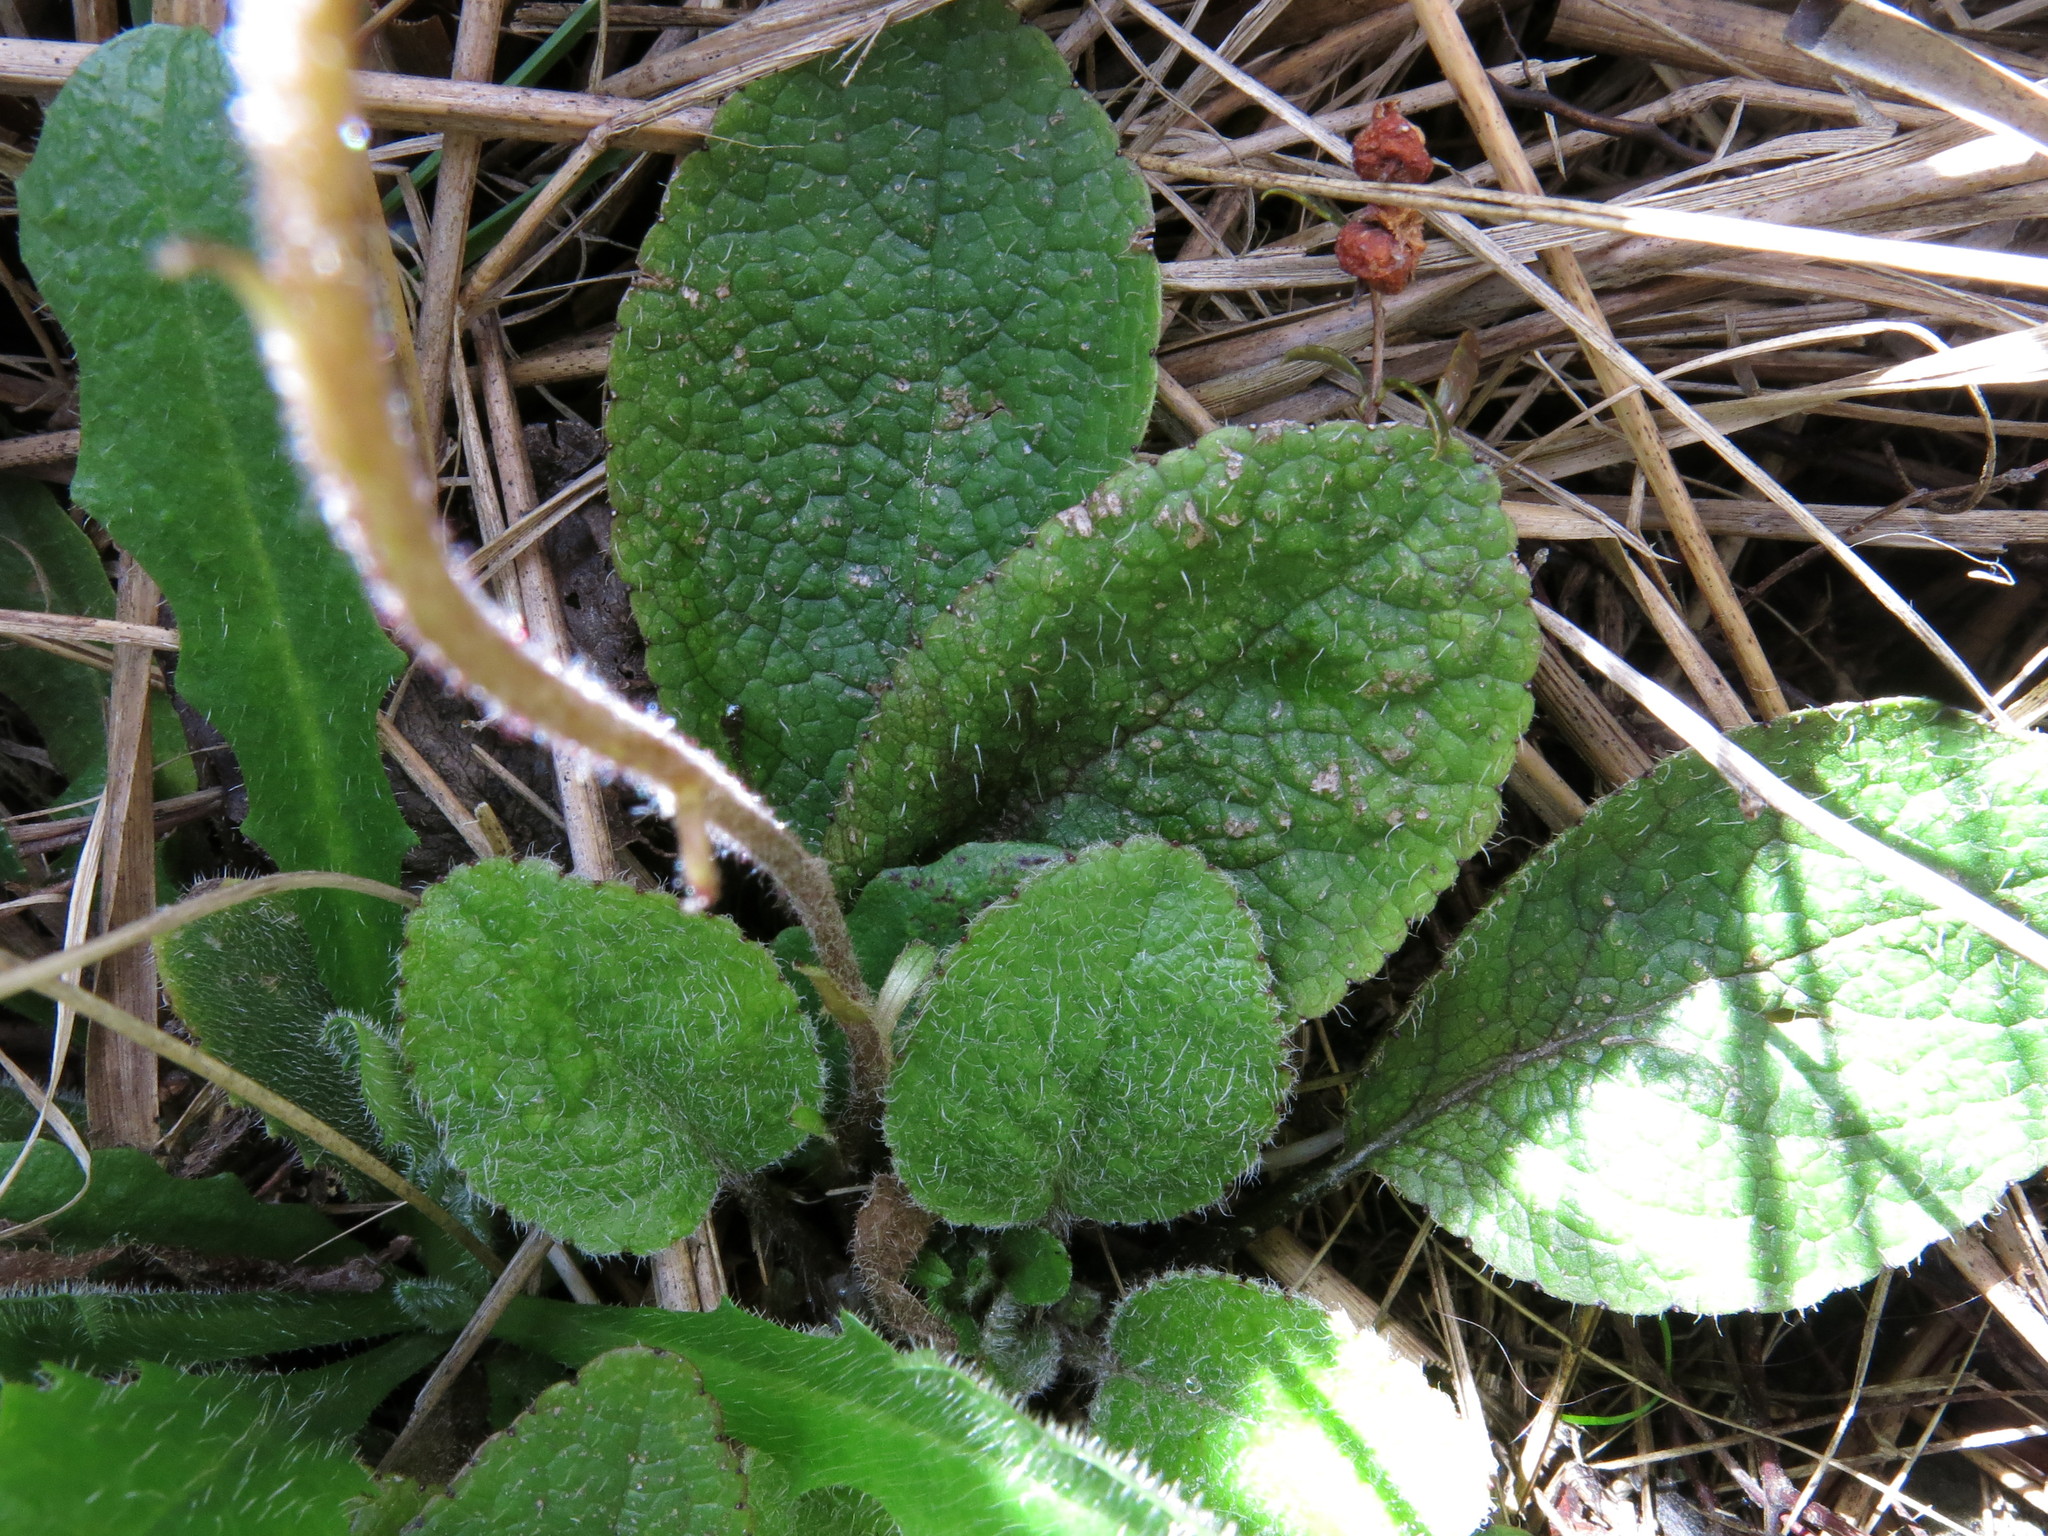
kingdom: Plantae
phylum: Tracheophyta
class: Magnoliopsida
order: Asterales
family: Asteraceae
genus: Brachyglottis
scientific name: Brachyglottis bellidioides
